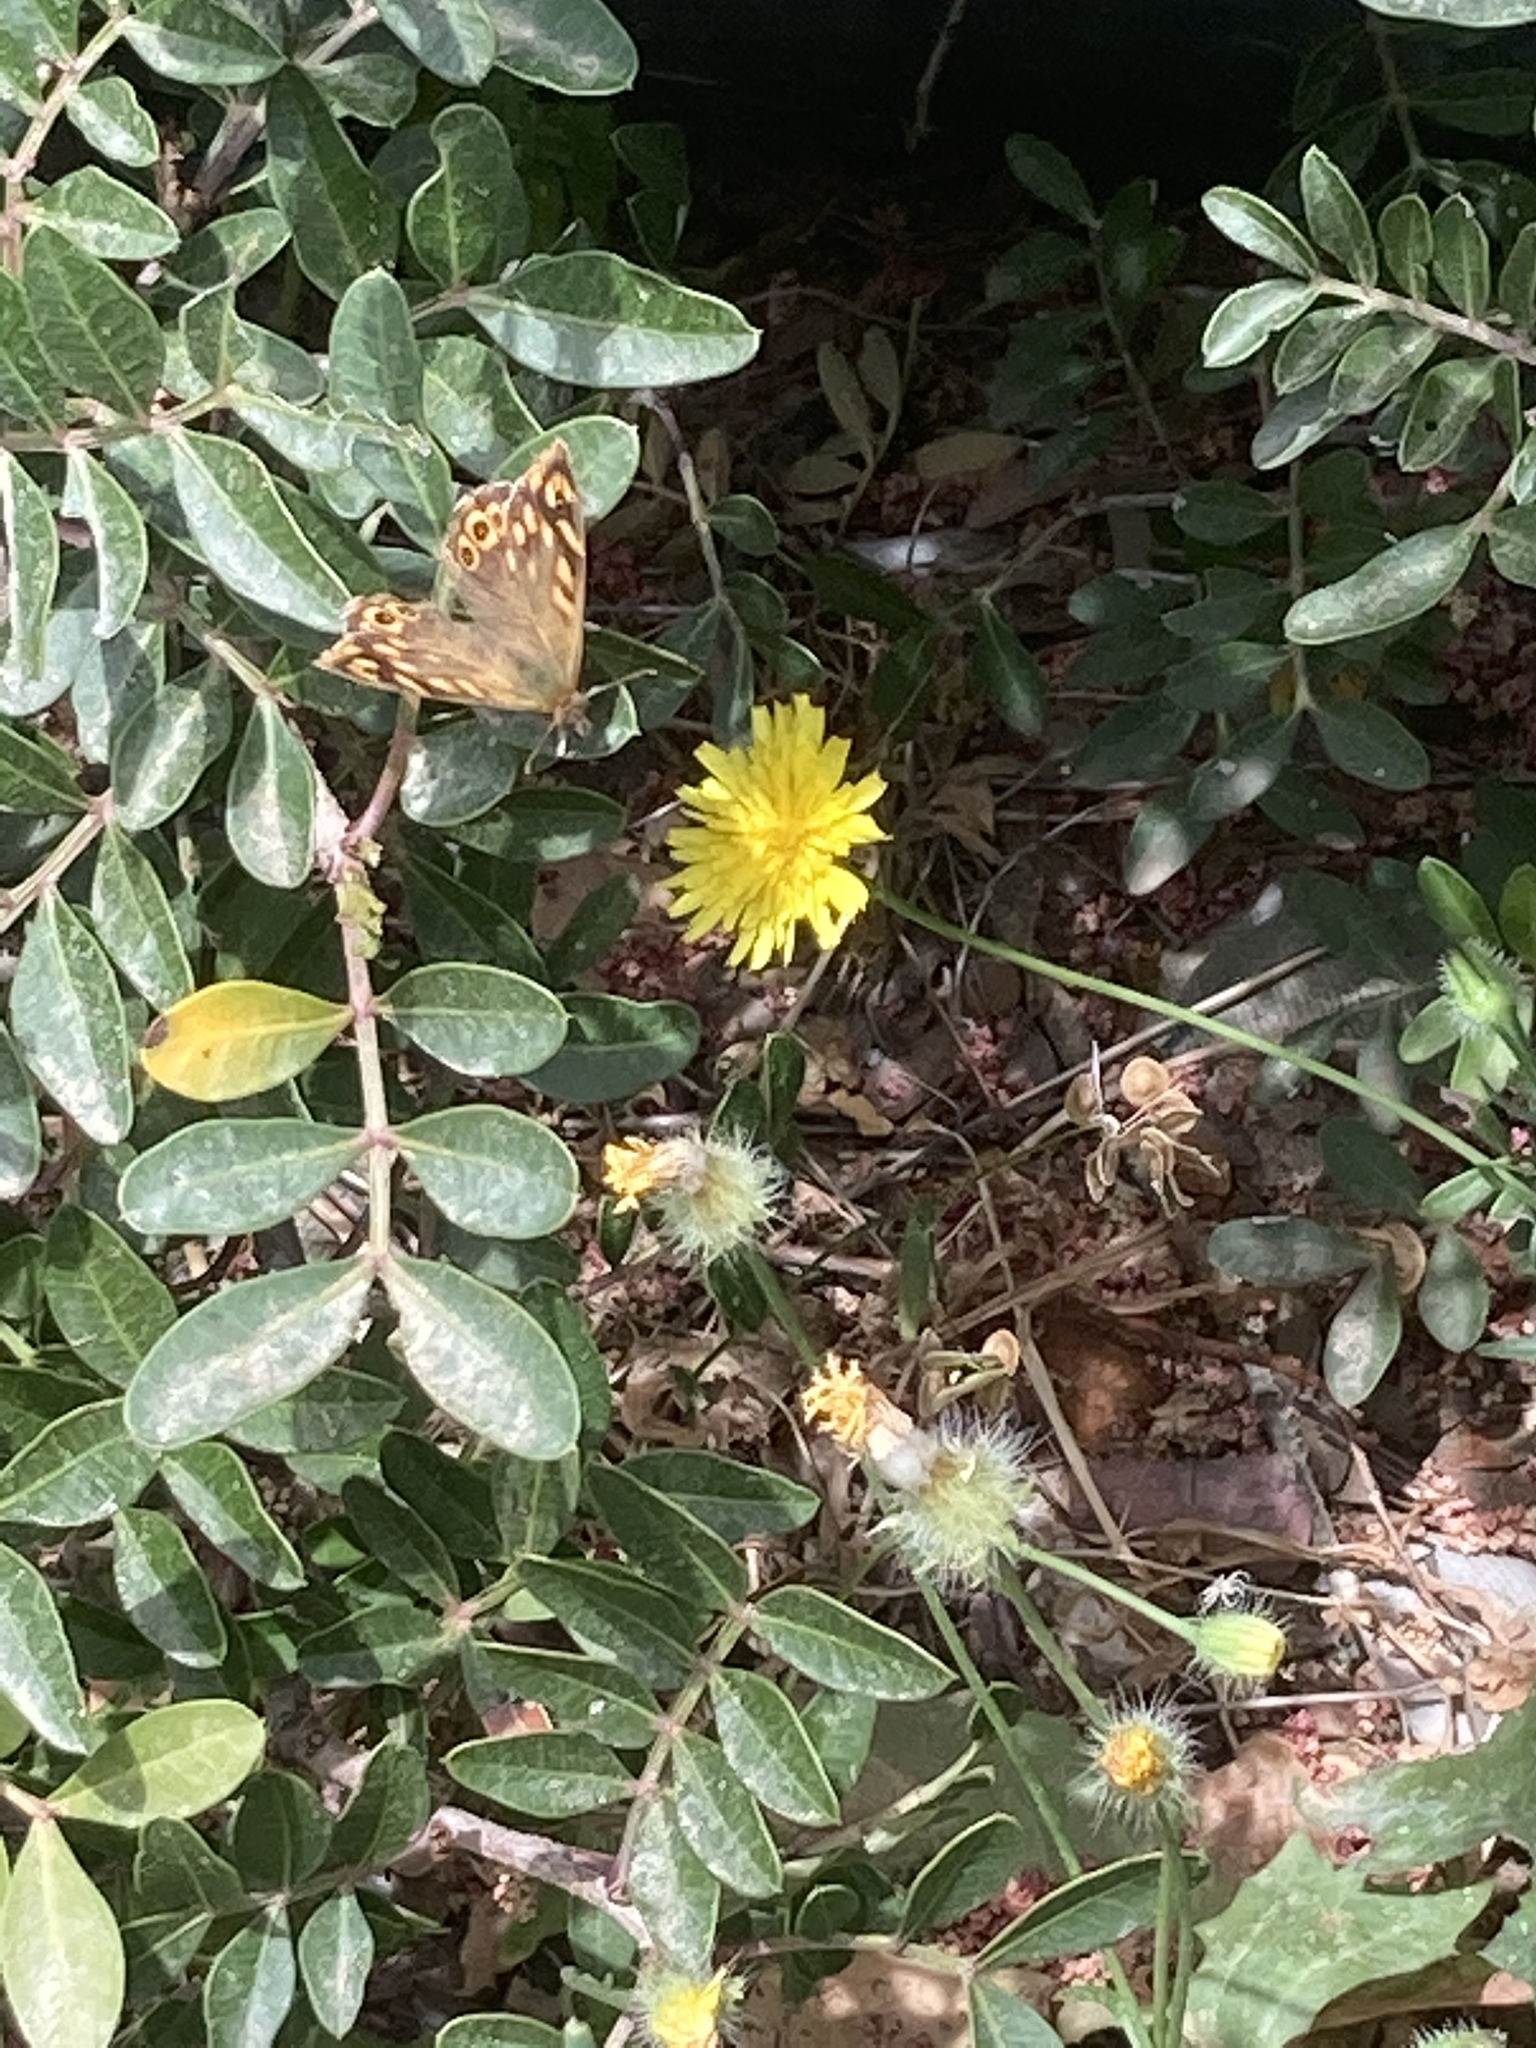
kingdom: Animalia
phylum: Arthropoda
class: Insecta
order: Lepidoptera
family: Nymphalidae
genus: Pararge
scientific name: Pararge aegeria
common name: Speckled wood
